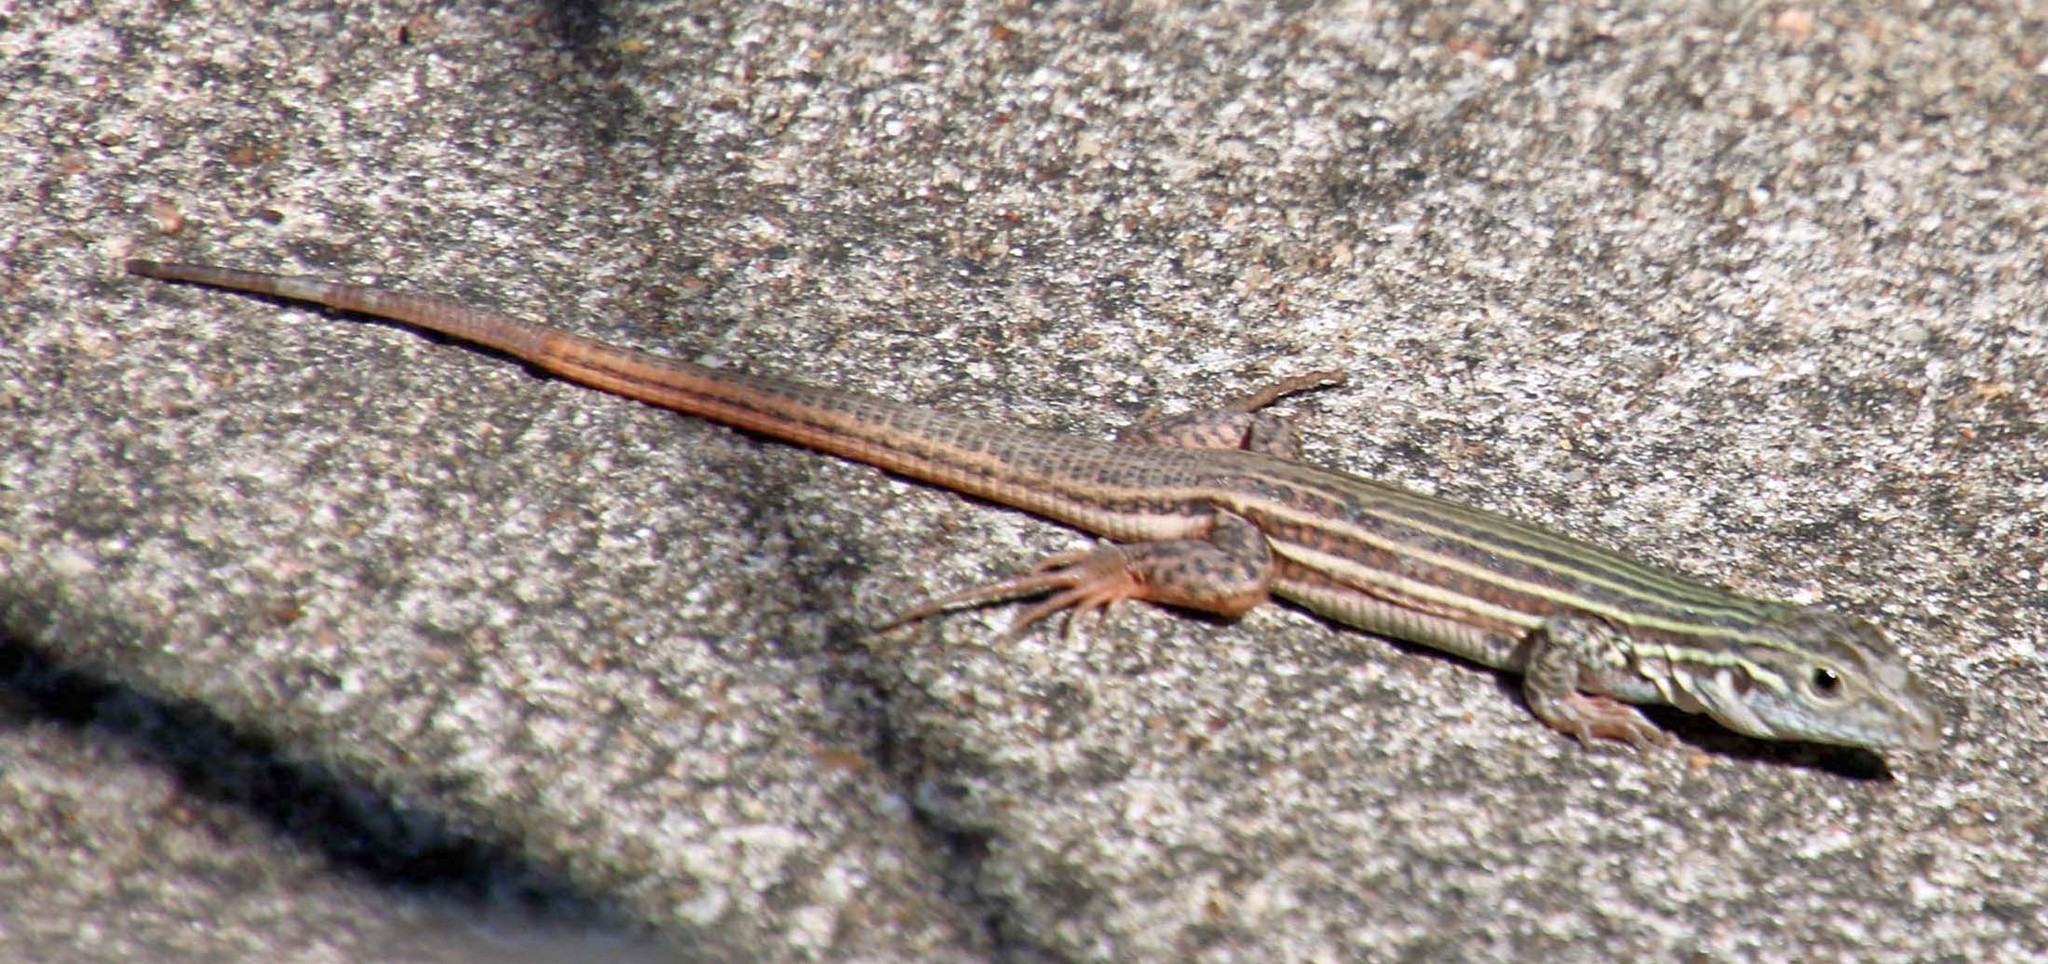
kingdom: Animalia
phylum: Chordata
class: Squamata
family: Teiidae
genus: Aspidoscelis
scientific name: Aspidoscelis gularis
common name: Eastern spotted whiptail
